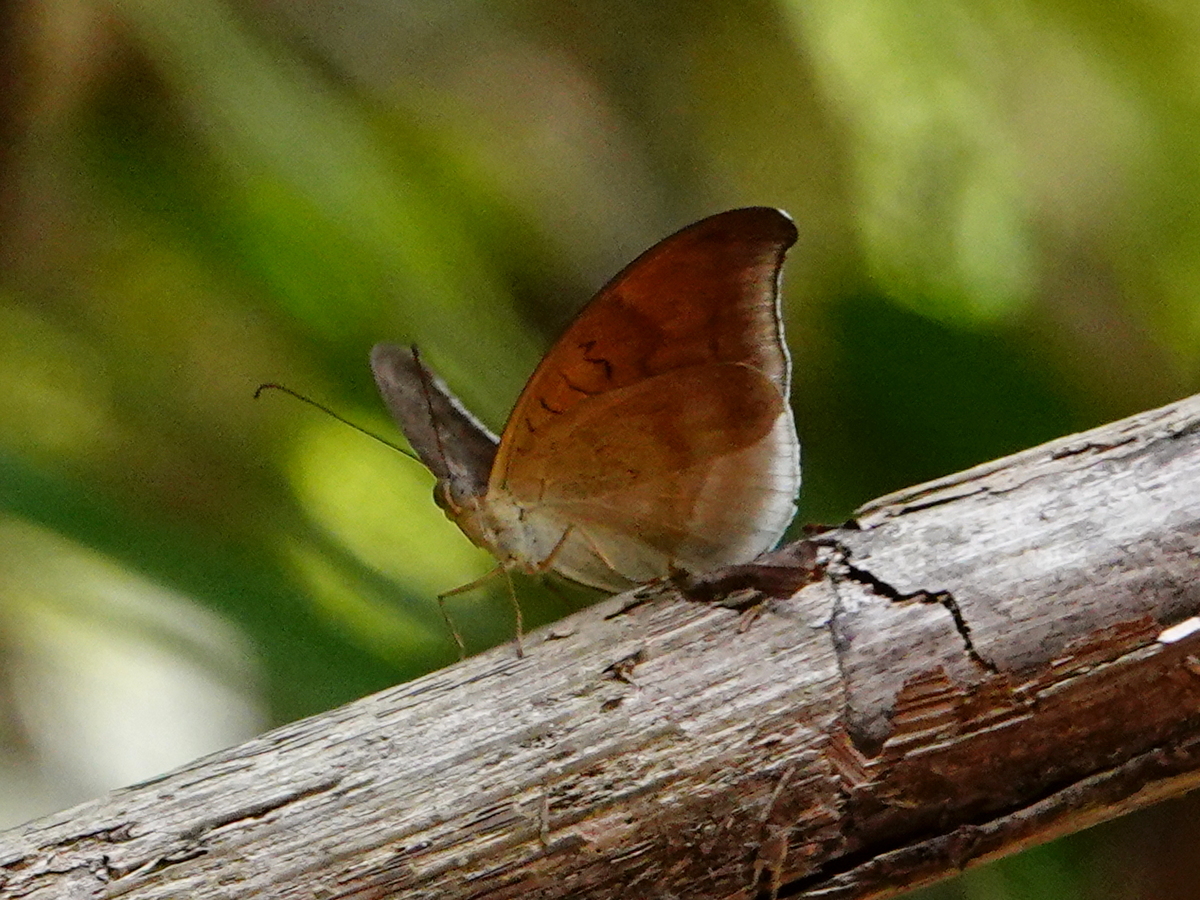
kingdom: Animalia
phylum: Arthropoda
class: Insecta
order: Lepidoptera
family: Nymphalidae
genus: Tanaecia
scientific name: Tanaecia lepidea
